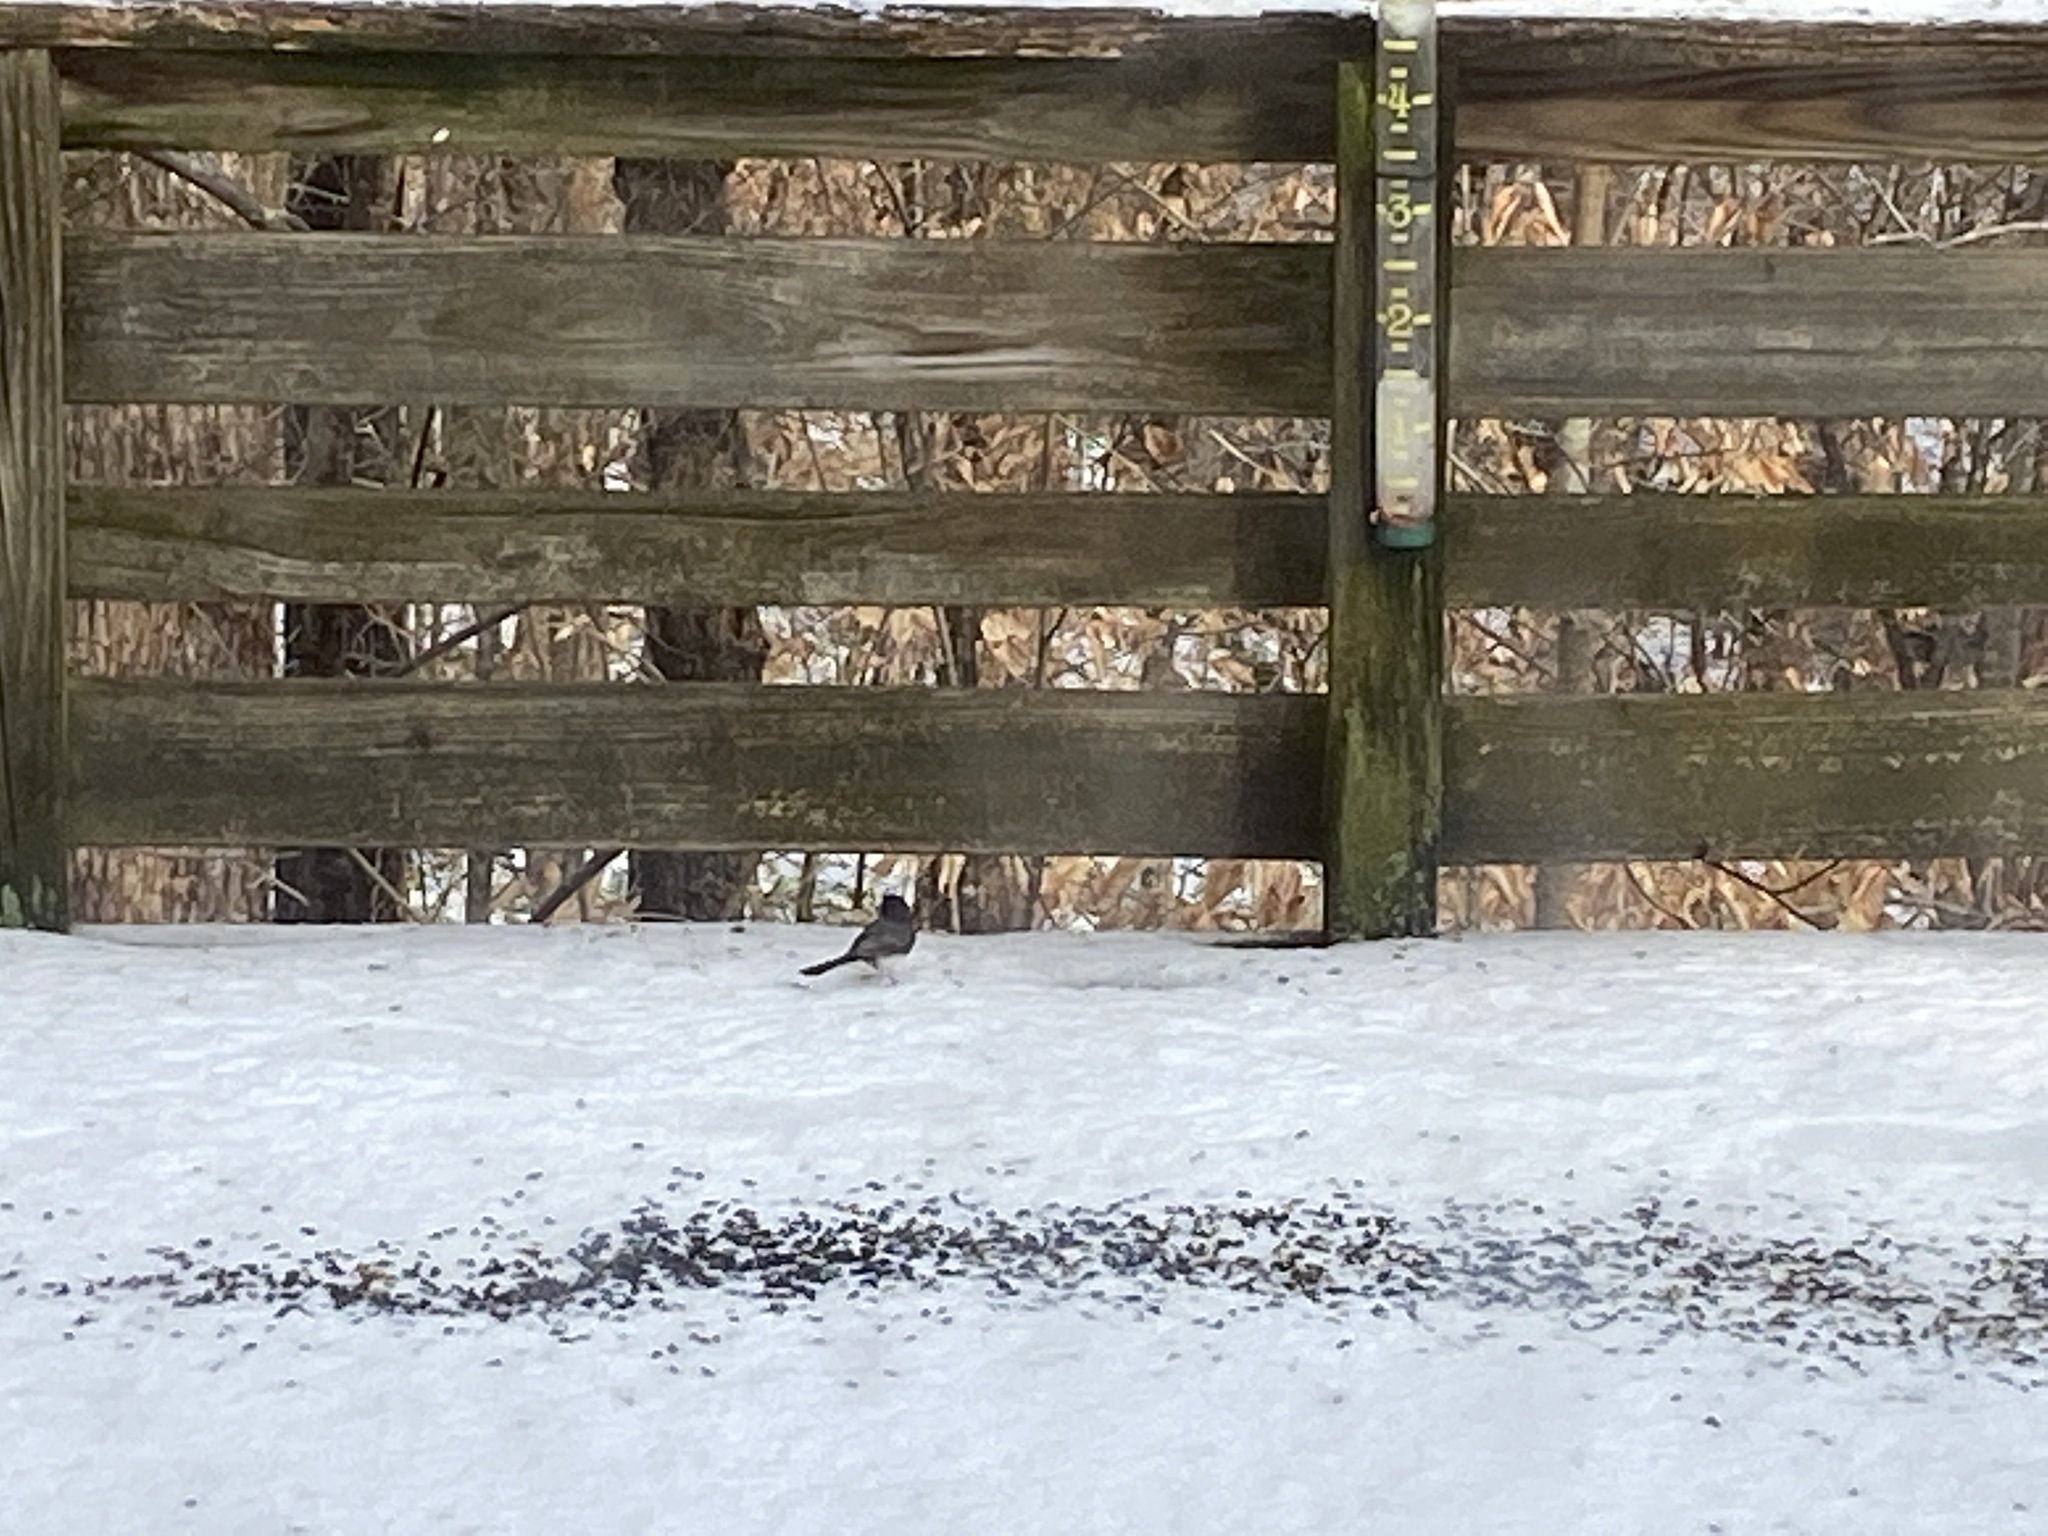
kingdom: Animalia
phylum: Chordata
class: Aves
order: Passeriformes
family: Passerellidae
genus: Junco
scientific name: Junco hyemalis
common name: Dark-eyed junco
